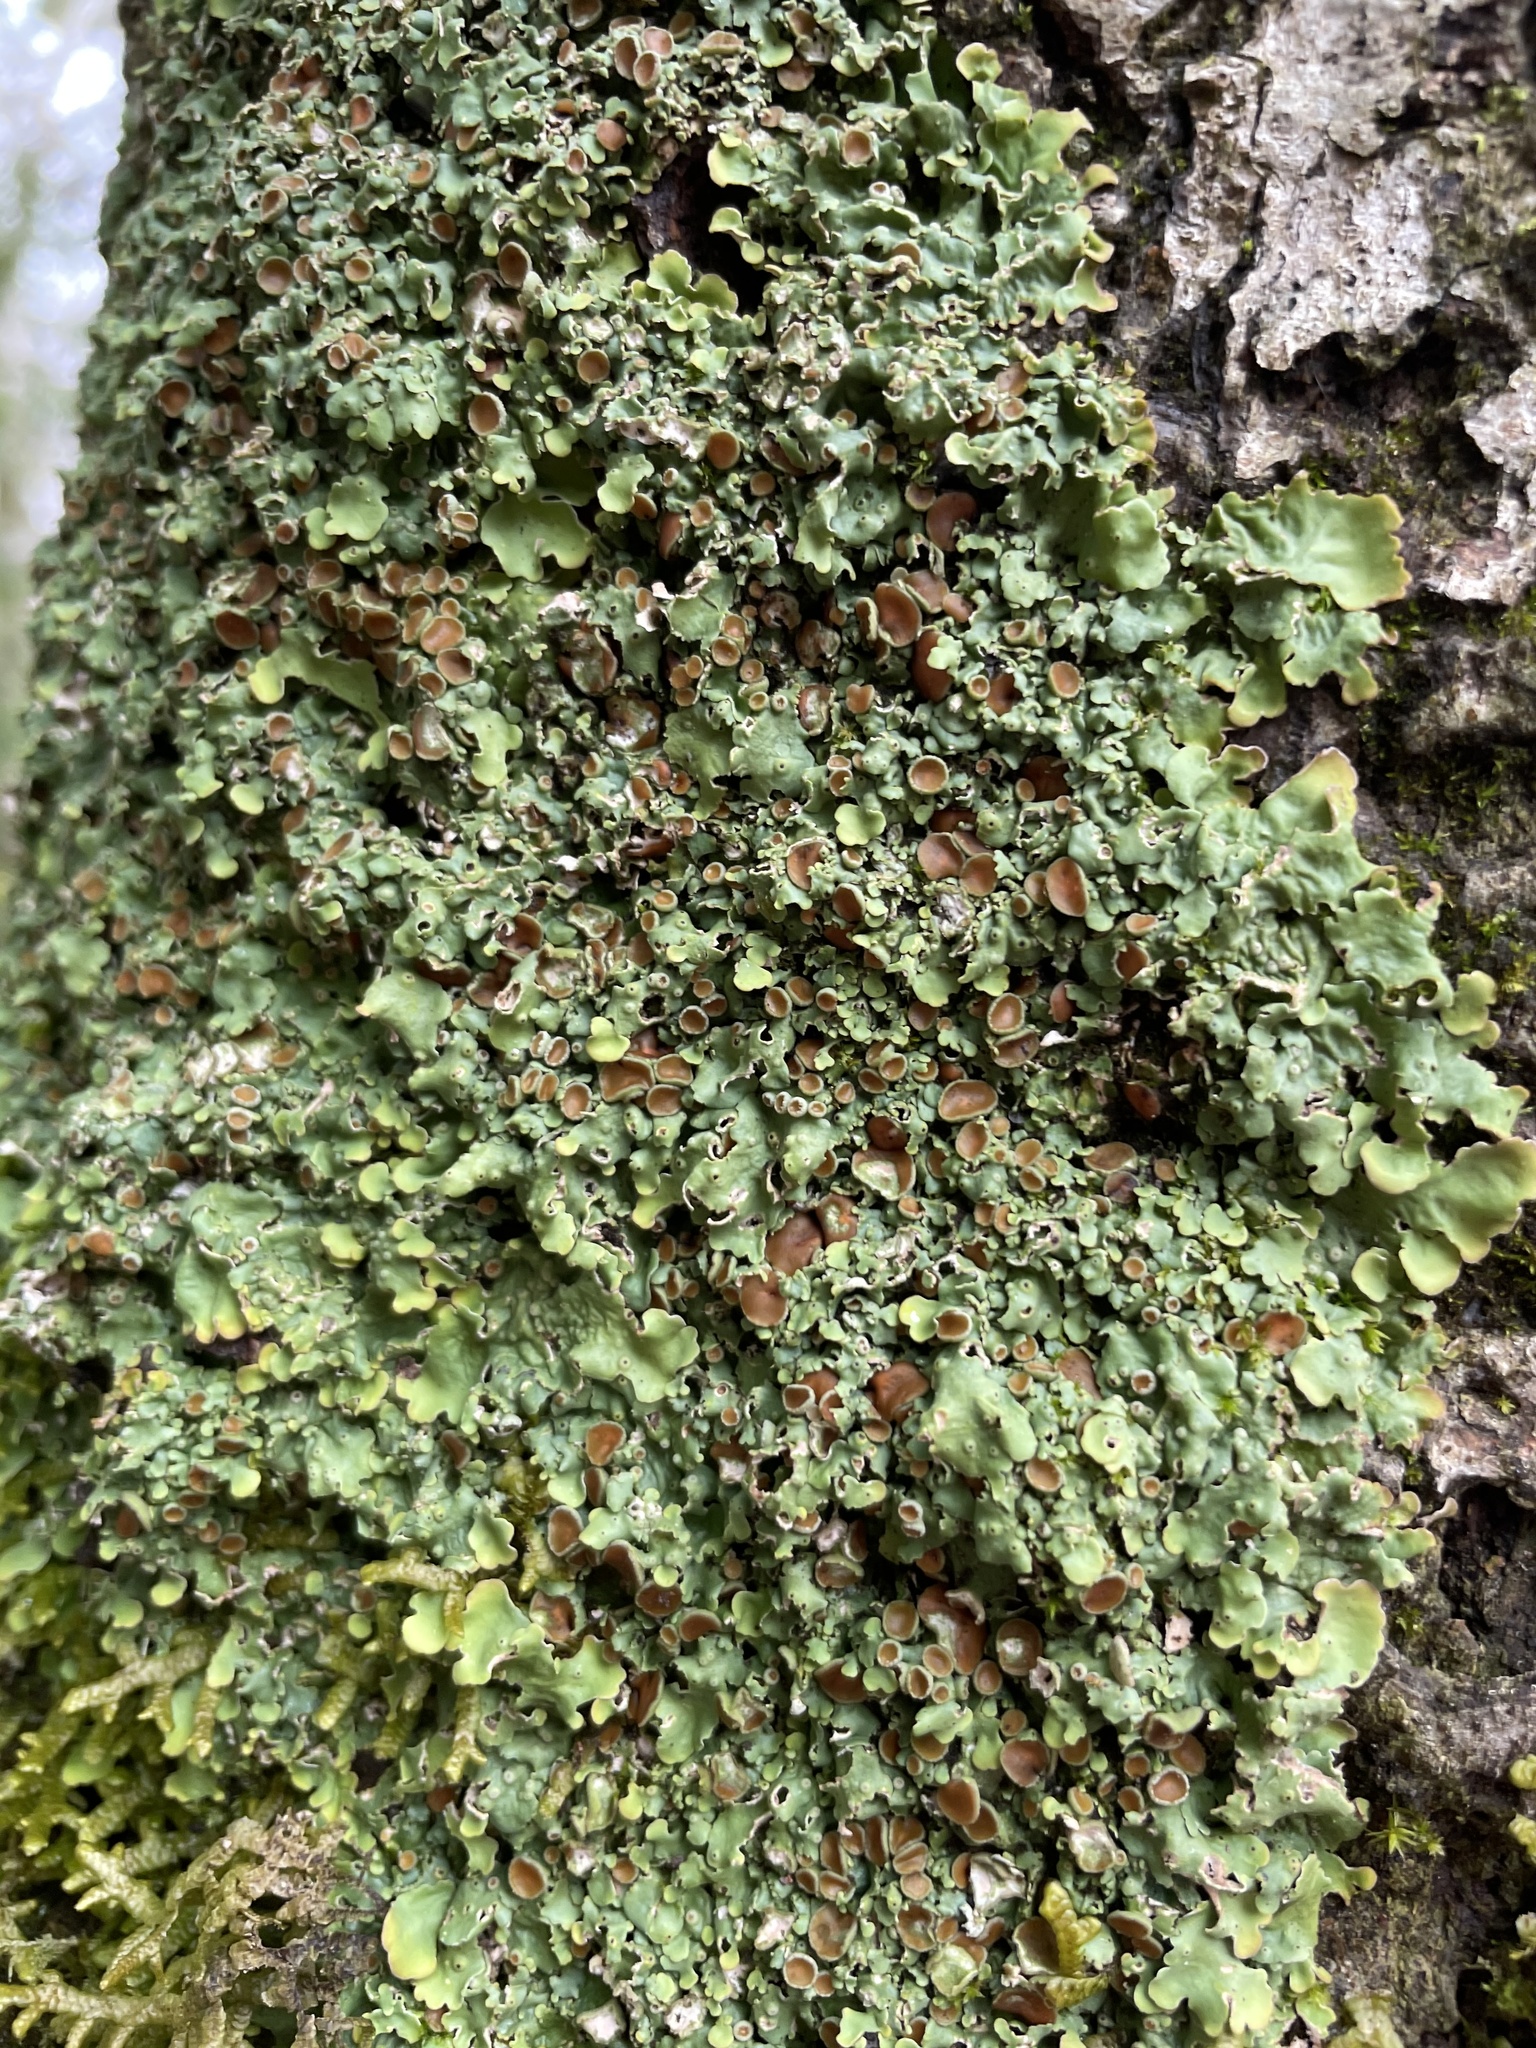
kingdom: Fungi
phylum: Ascomycota
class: Lecanoromycetes
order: Peltigerales
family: Lobariaceae
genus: Ricasolia
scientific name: Ricasolia quercizans
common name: Smooth lungwort
